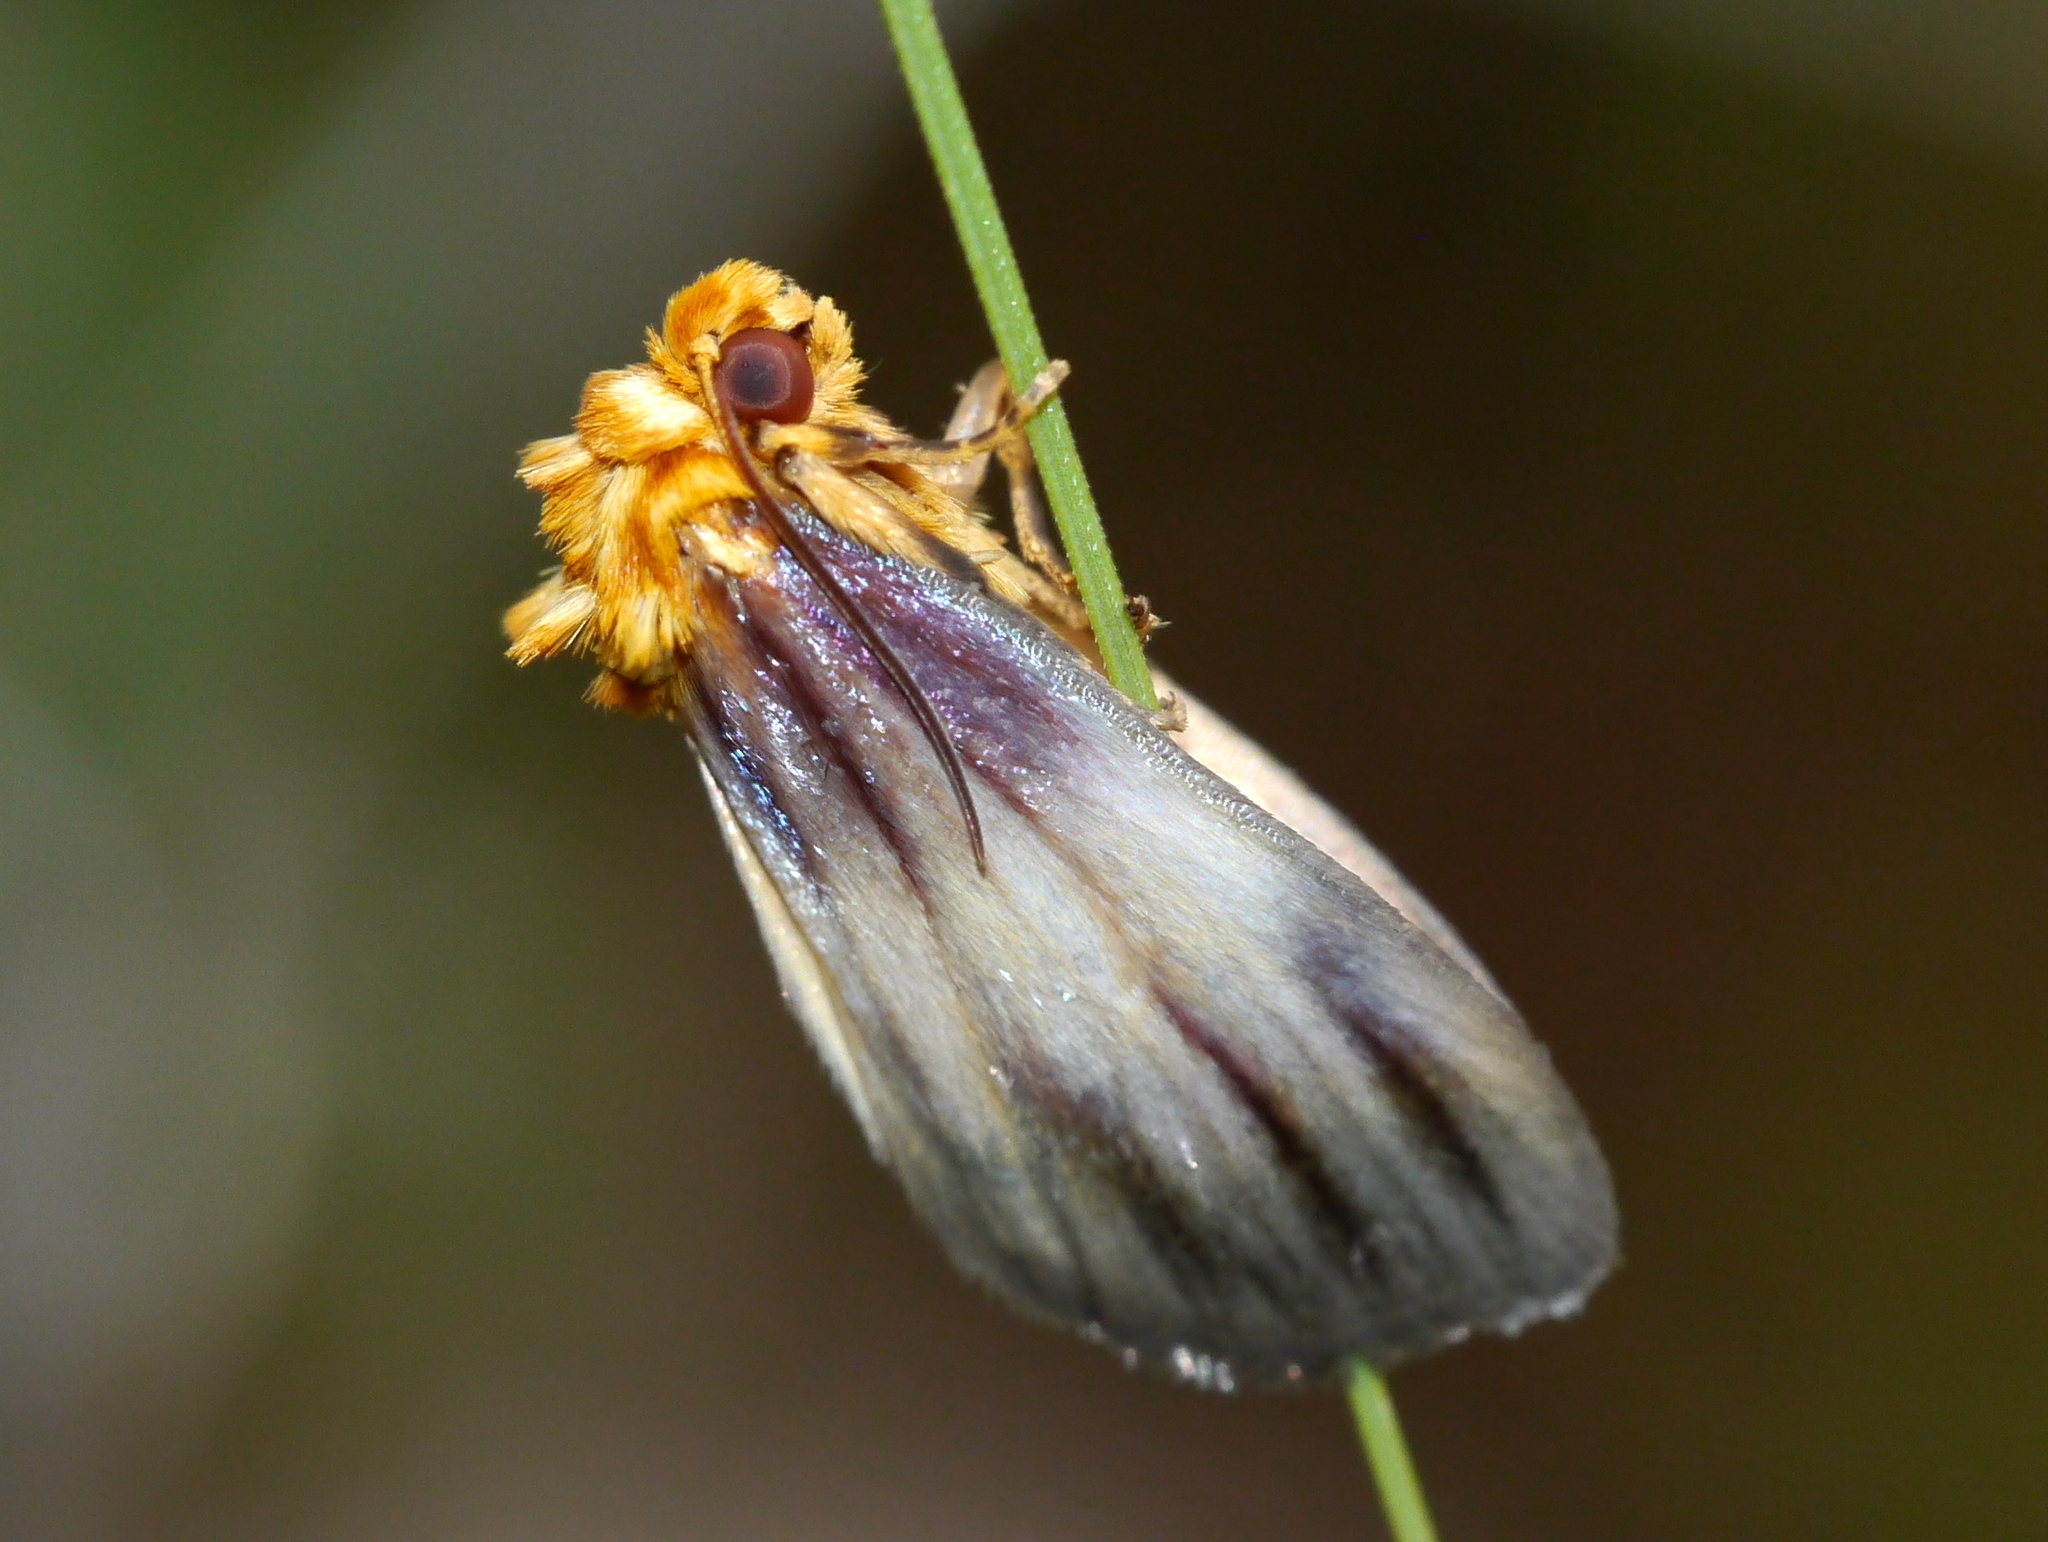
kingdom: Animalia
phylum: Arthropoda
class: Insecta
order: Lepidoptera
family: Noctuidae
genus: Antaplaga
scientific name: Antaplaga plesioglauca
